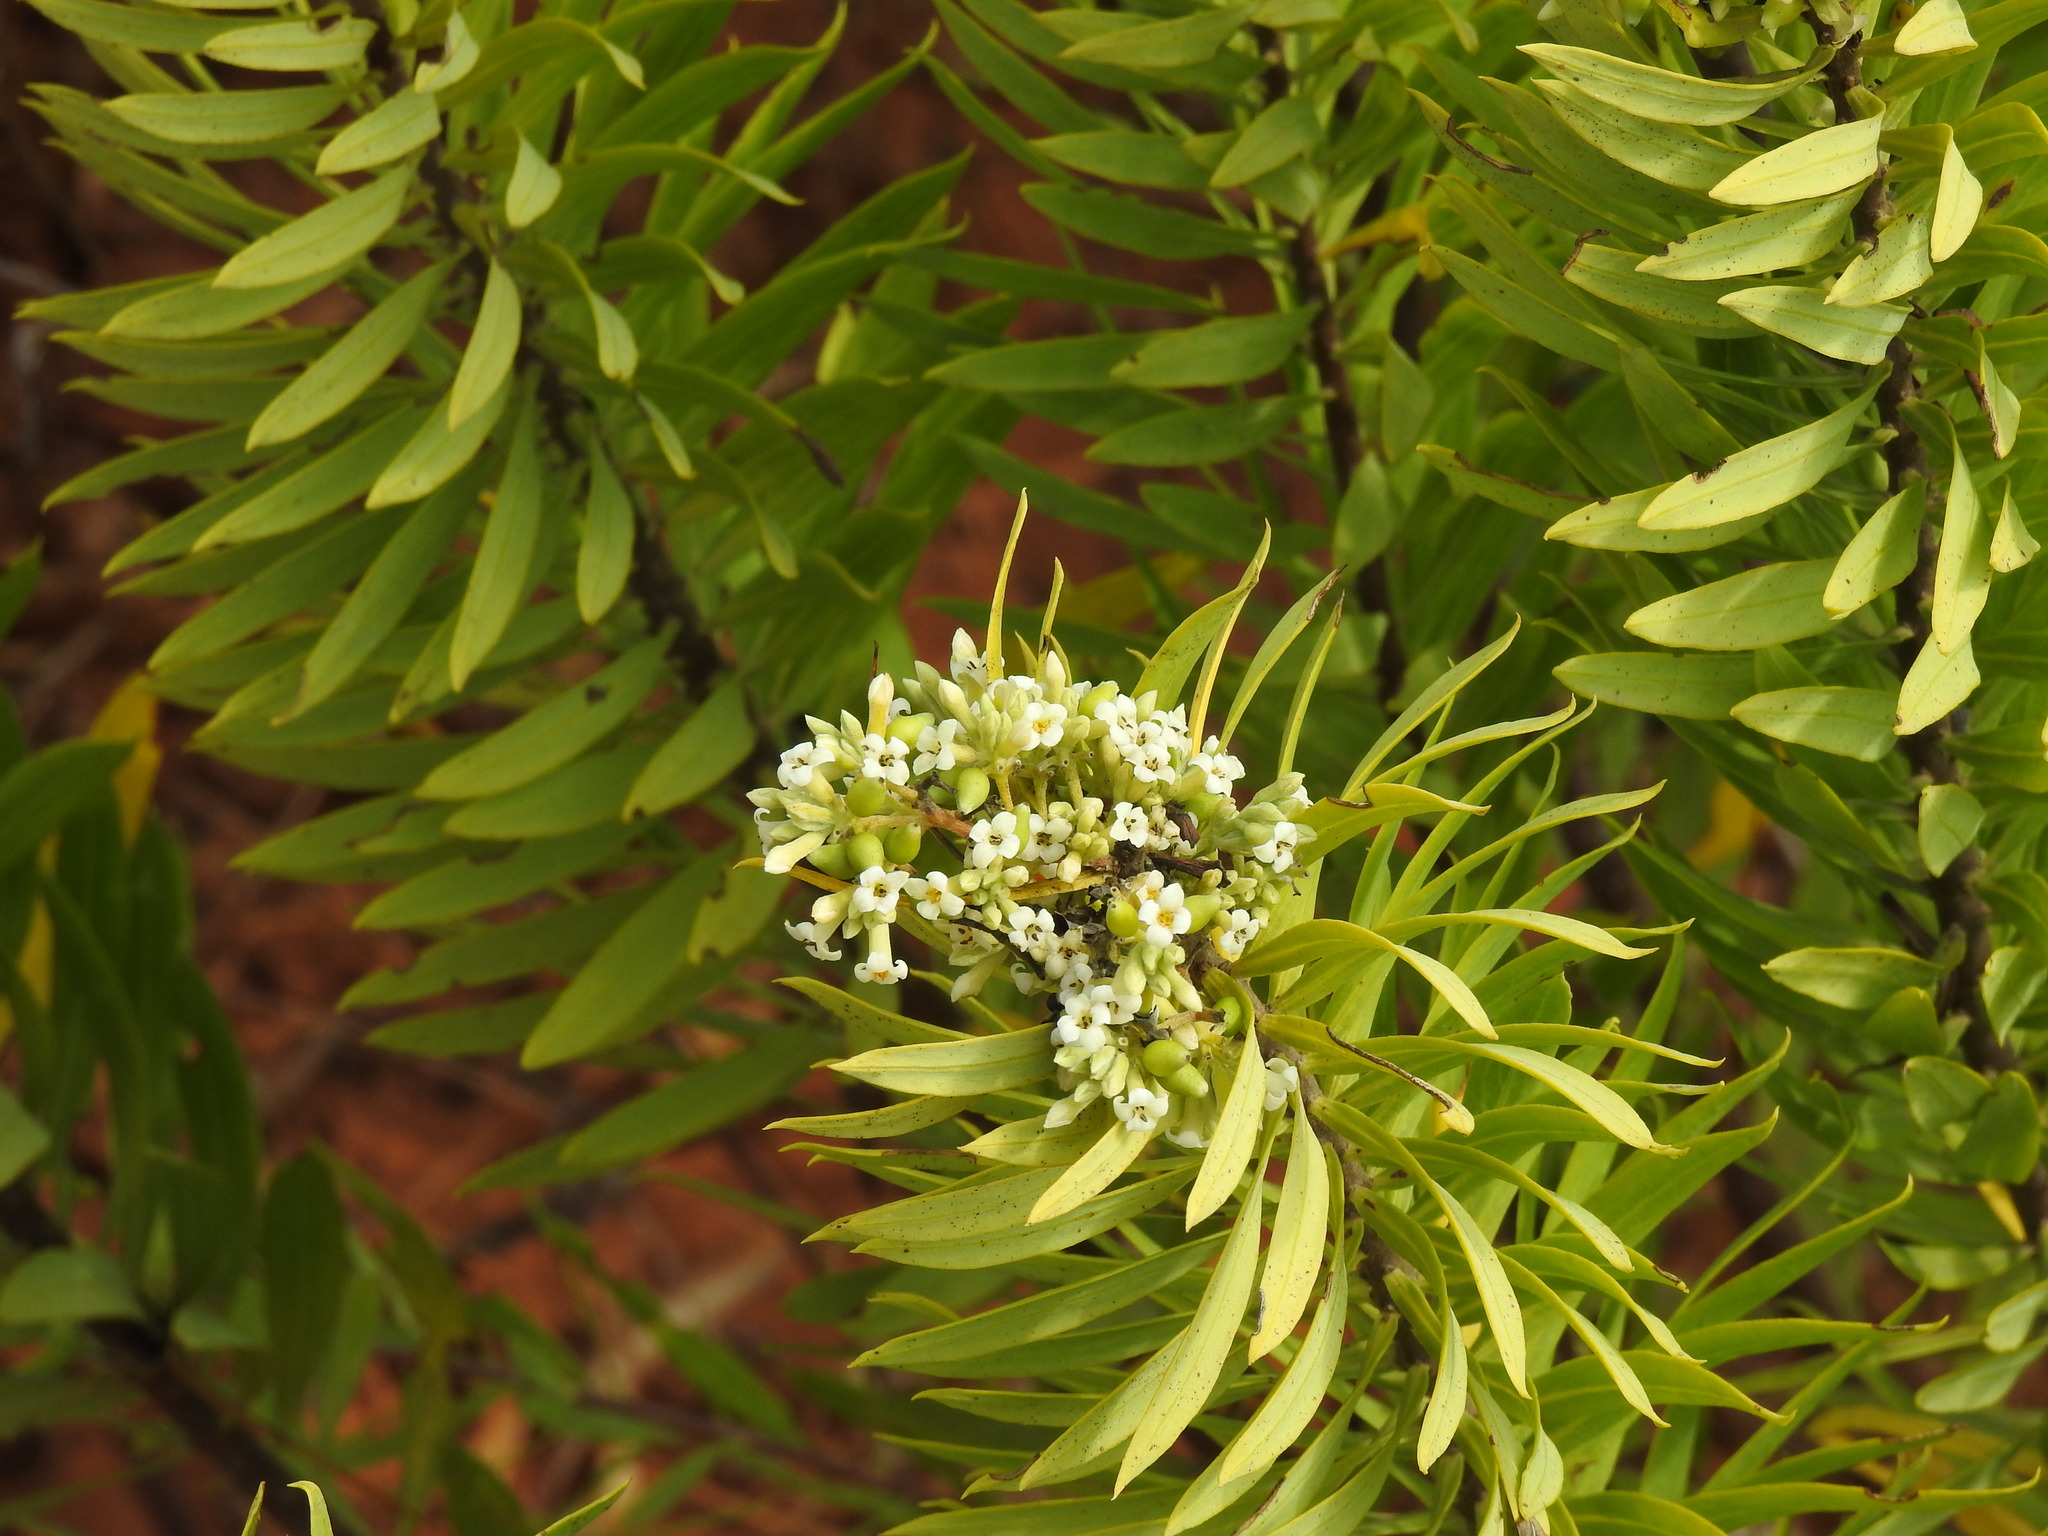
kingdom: Plantae
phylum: Tracheophyta
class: Magnoliopsida
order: Malvales
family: Thymelaeaceae
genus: Daphne
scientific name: Daphne gnidium
